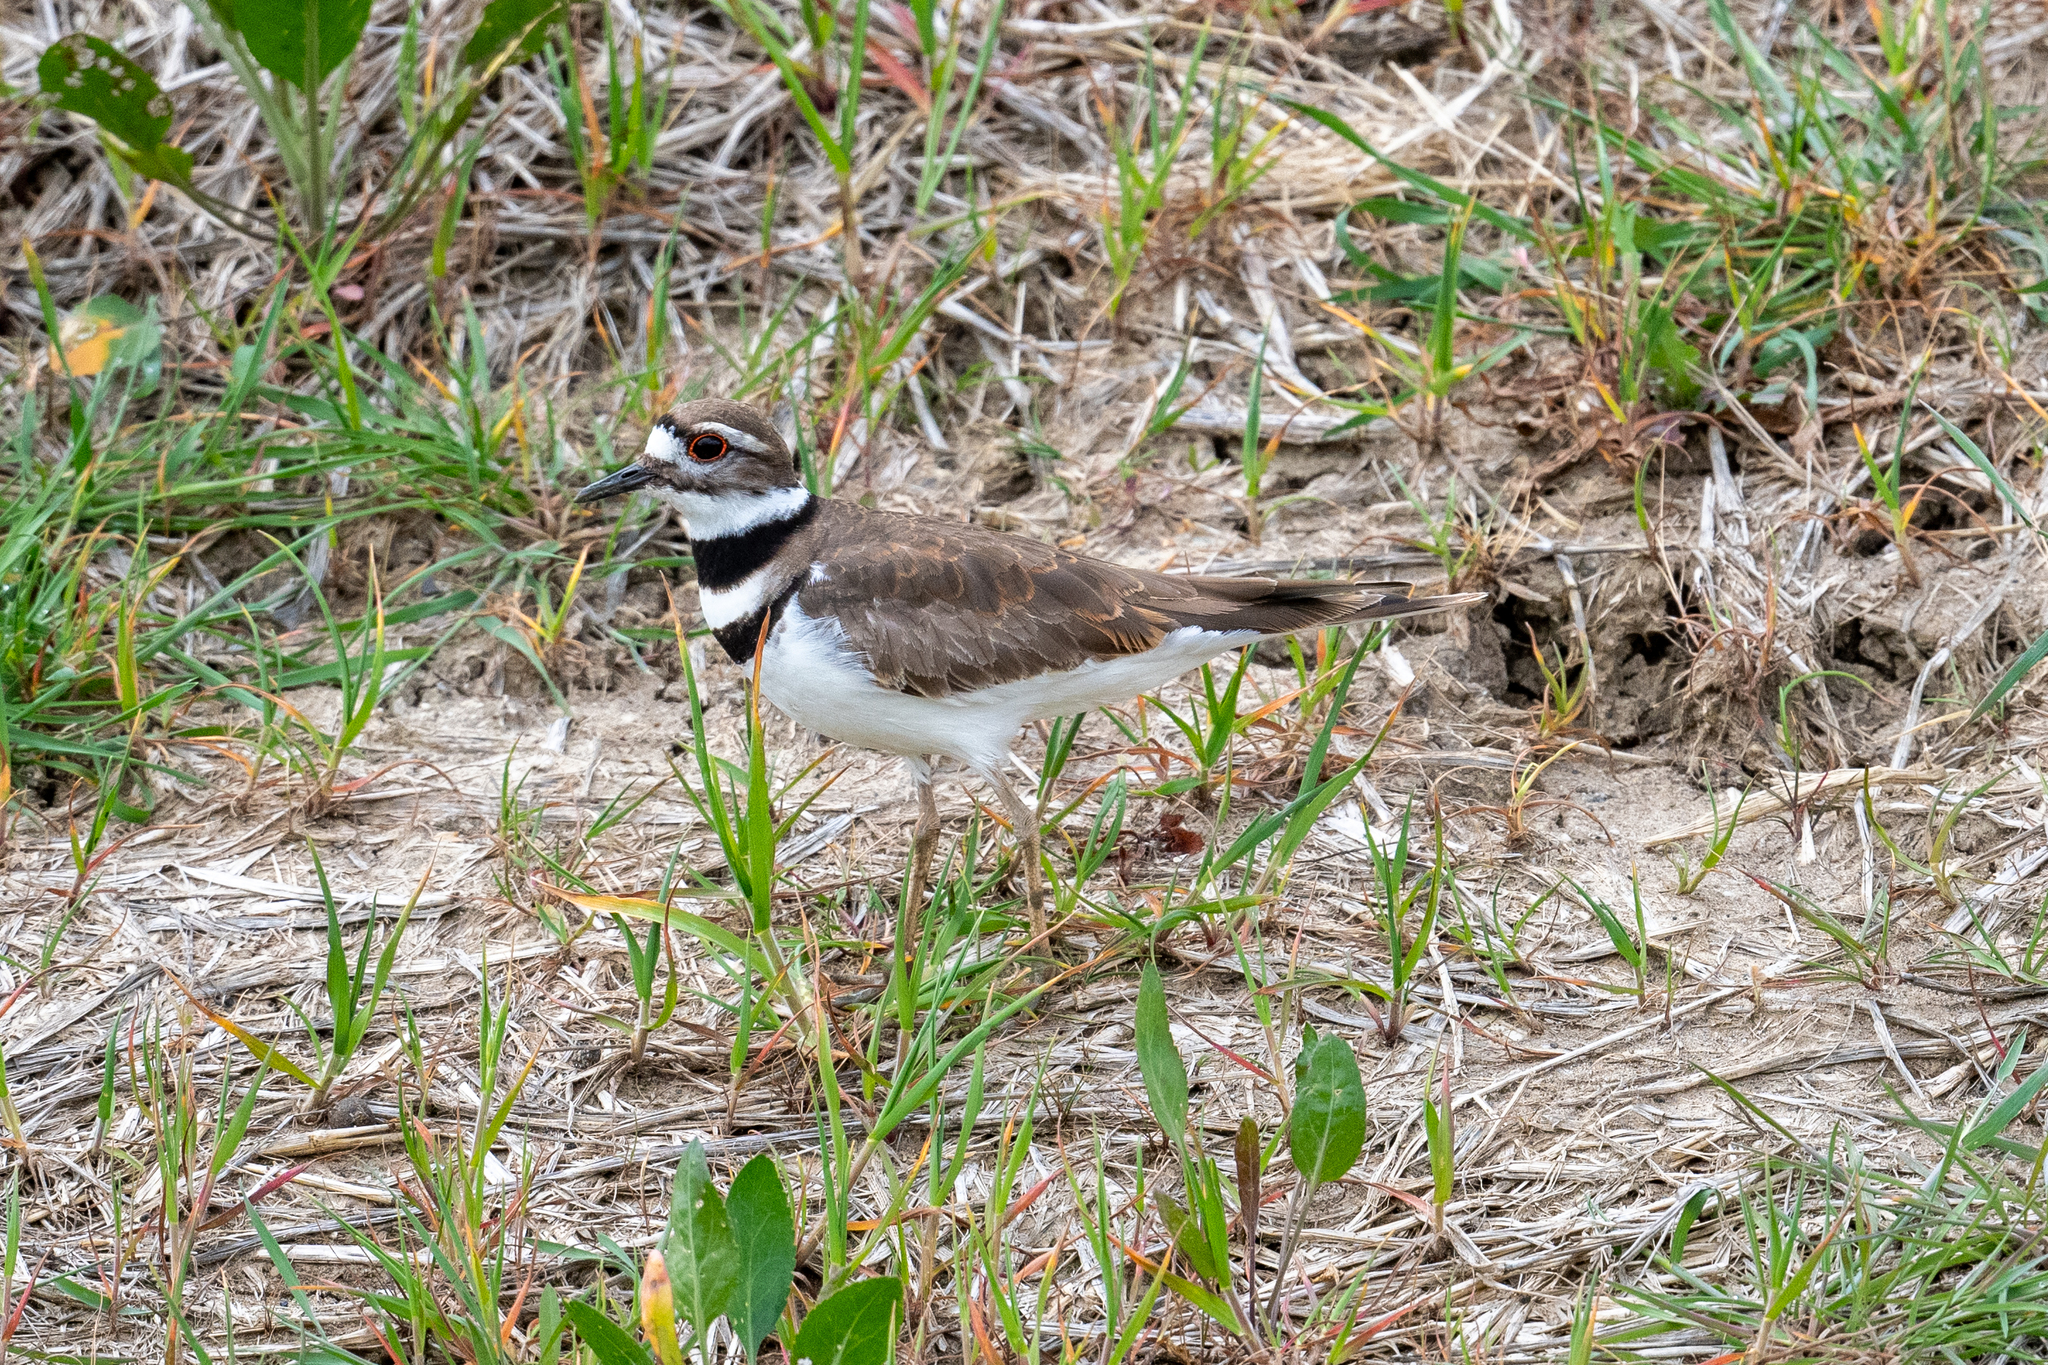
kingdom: Animalia
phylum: Chordata
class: Aves
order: Charadriiformes
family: Charadriidae
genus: Charadrius
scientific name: Charadrius vociferus
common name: Killdeer
